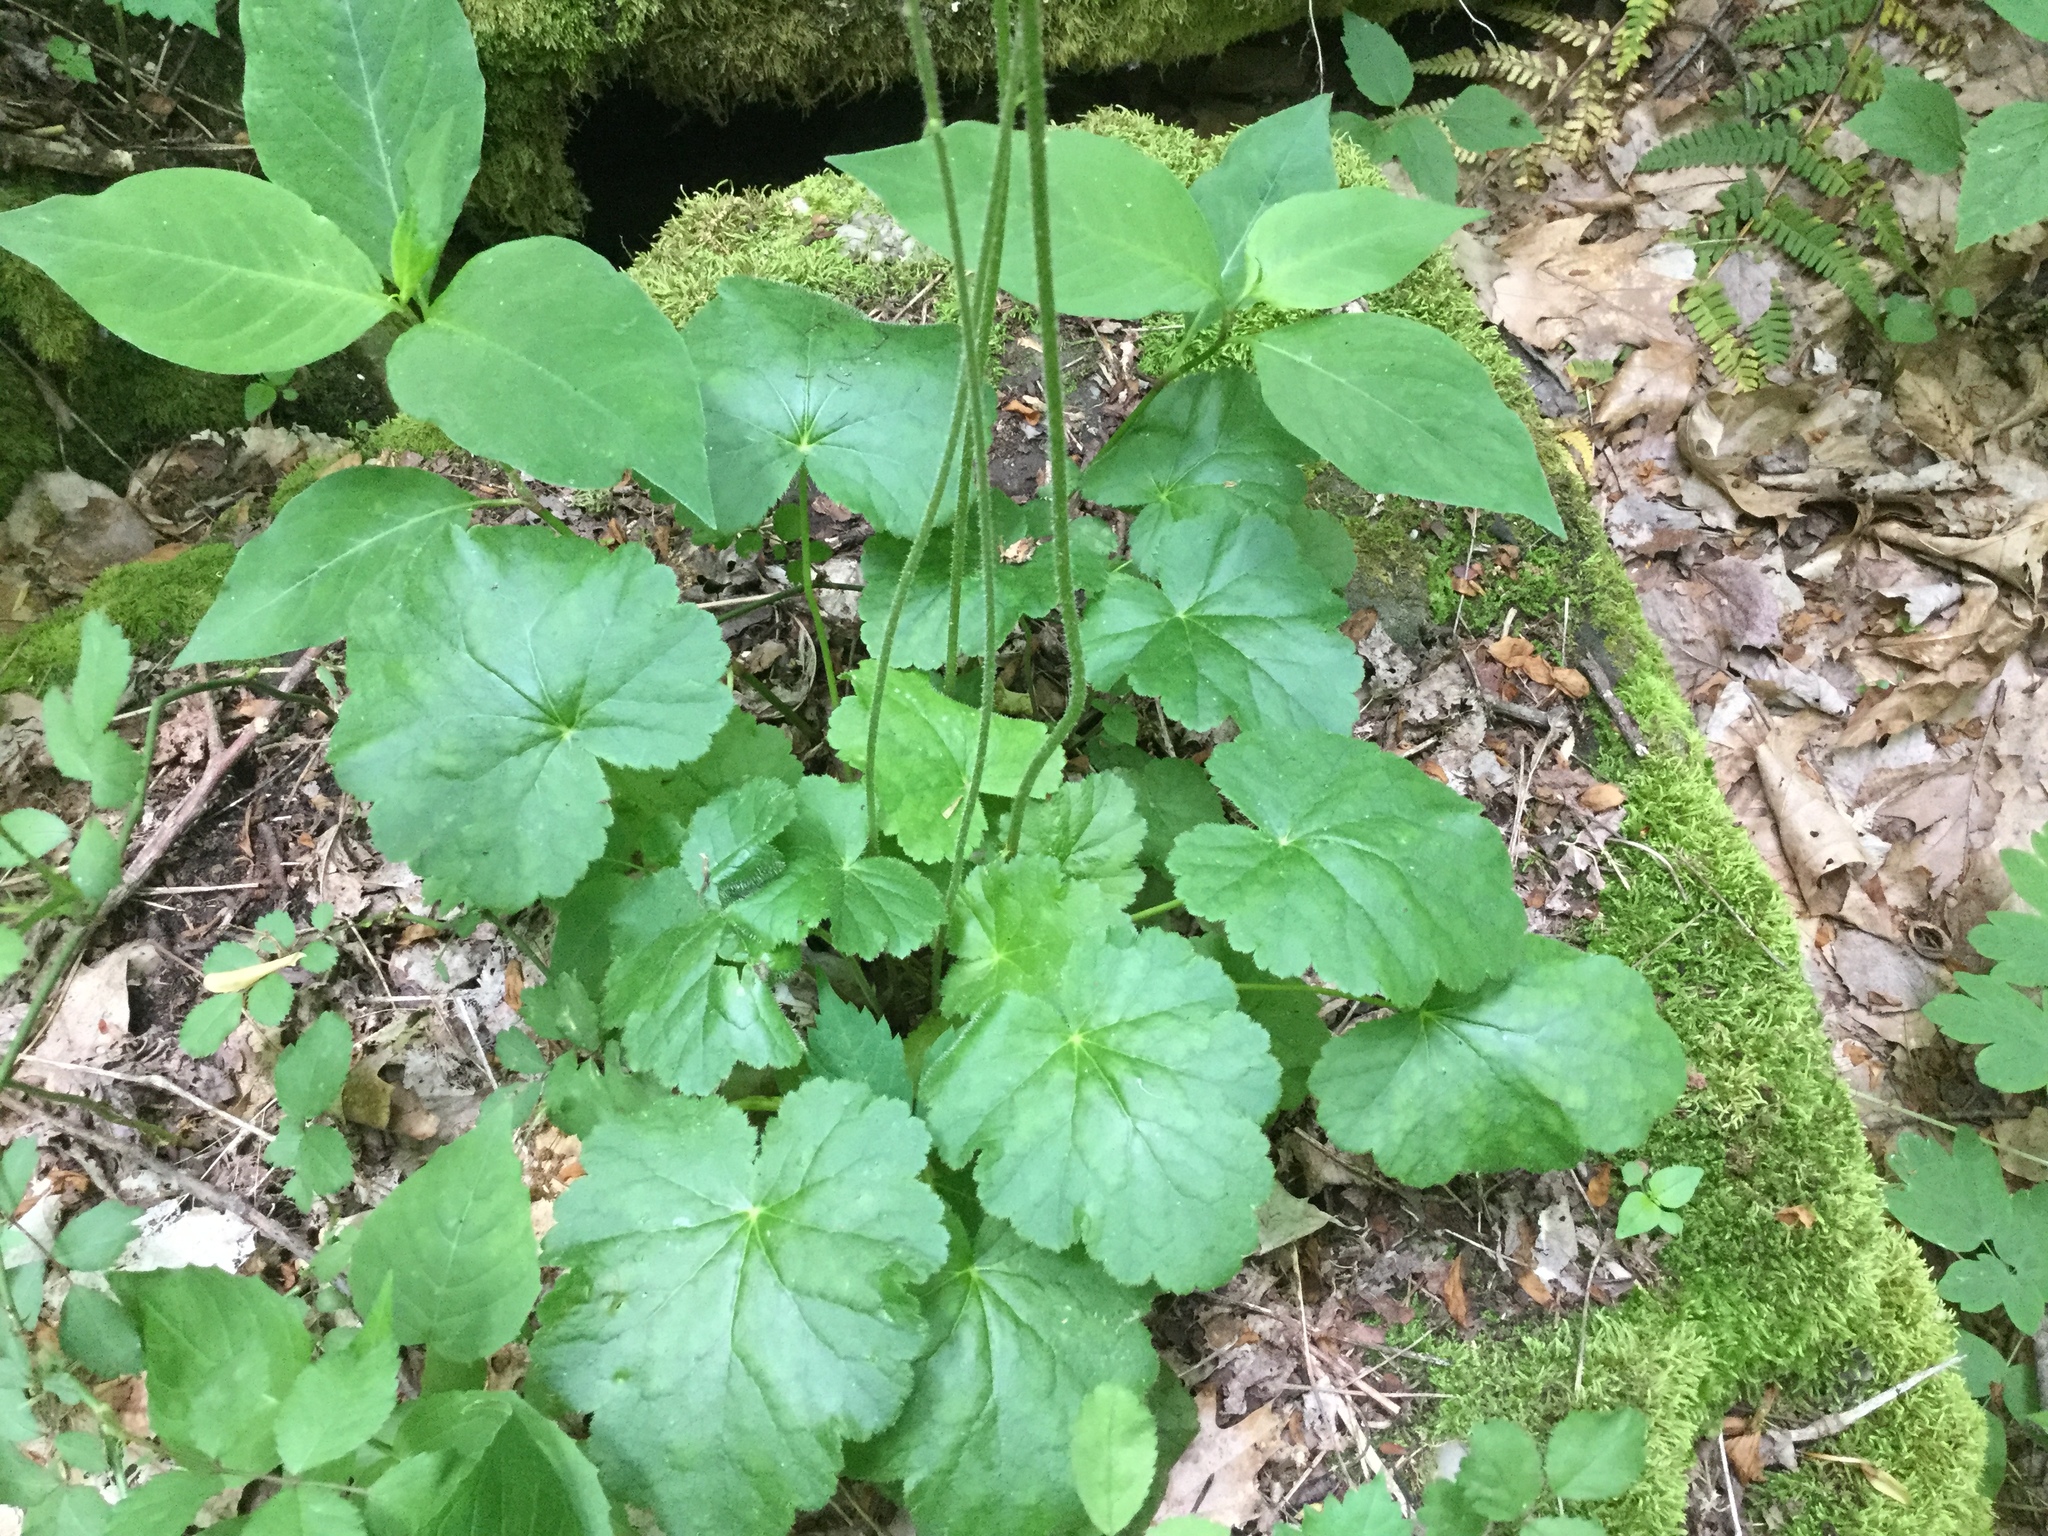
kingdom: Plantae
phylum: Tracheophyta
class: Magnoliopsida
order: Saxifragales
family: Saxifragaceae
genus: Heuchera
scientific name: Heuchera americana
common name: Alumroot
